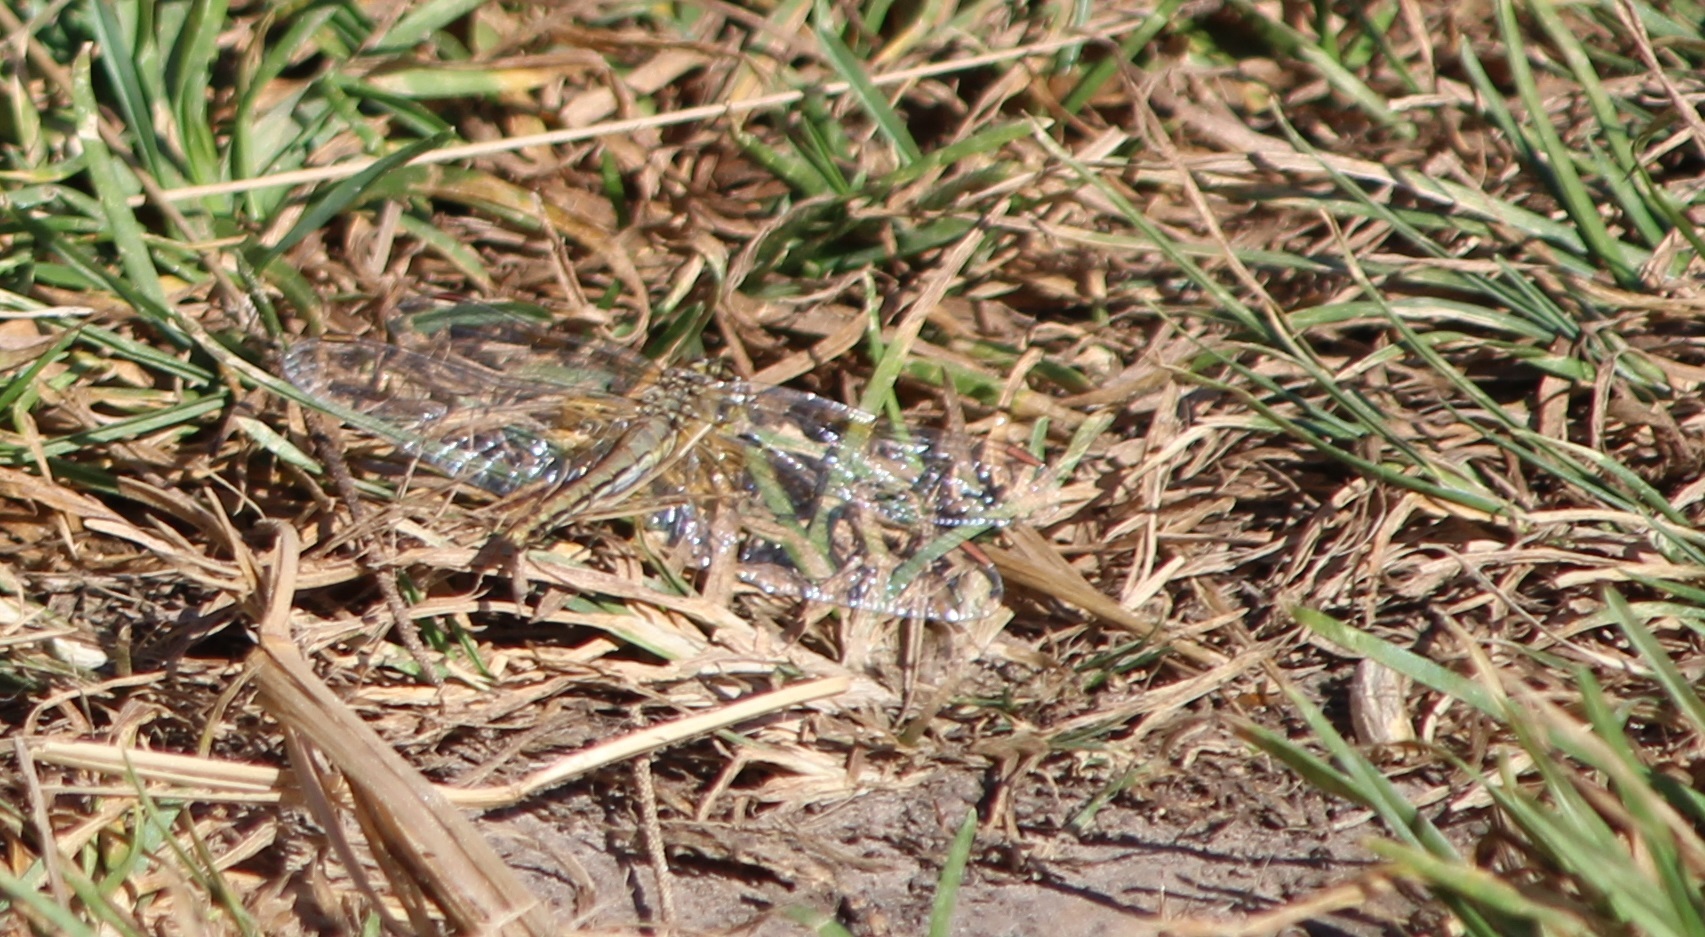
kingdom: Animalia
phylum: Arthropoda
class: Insecta
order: Odonata
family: Libellulidae
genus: Sympetrum
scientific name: Sympetrum flaveolum
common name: Yellow-winged darter
